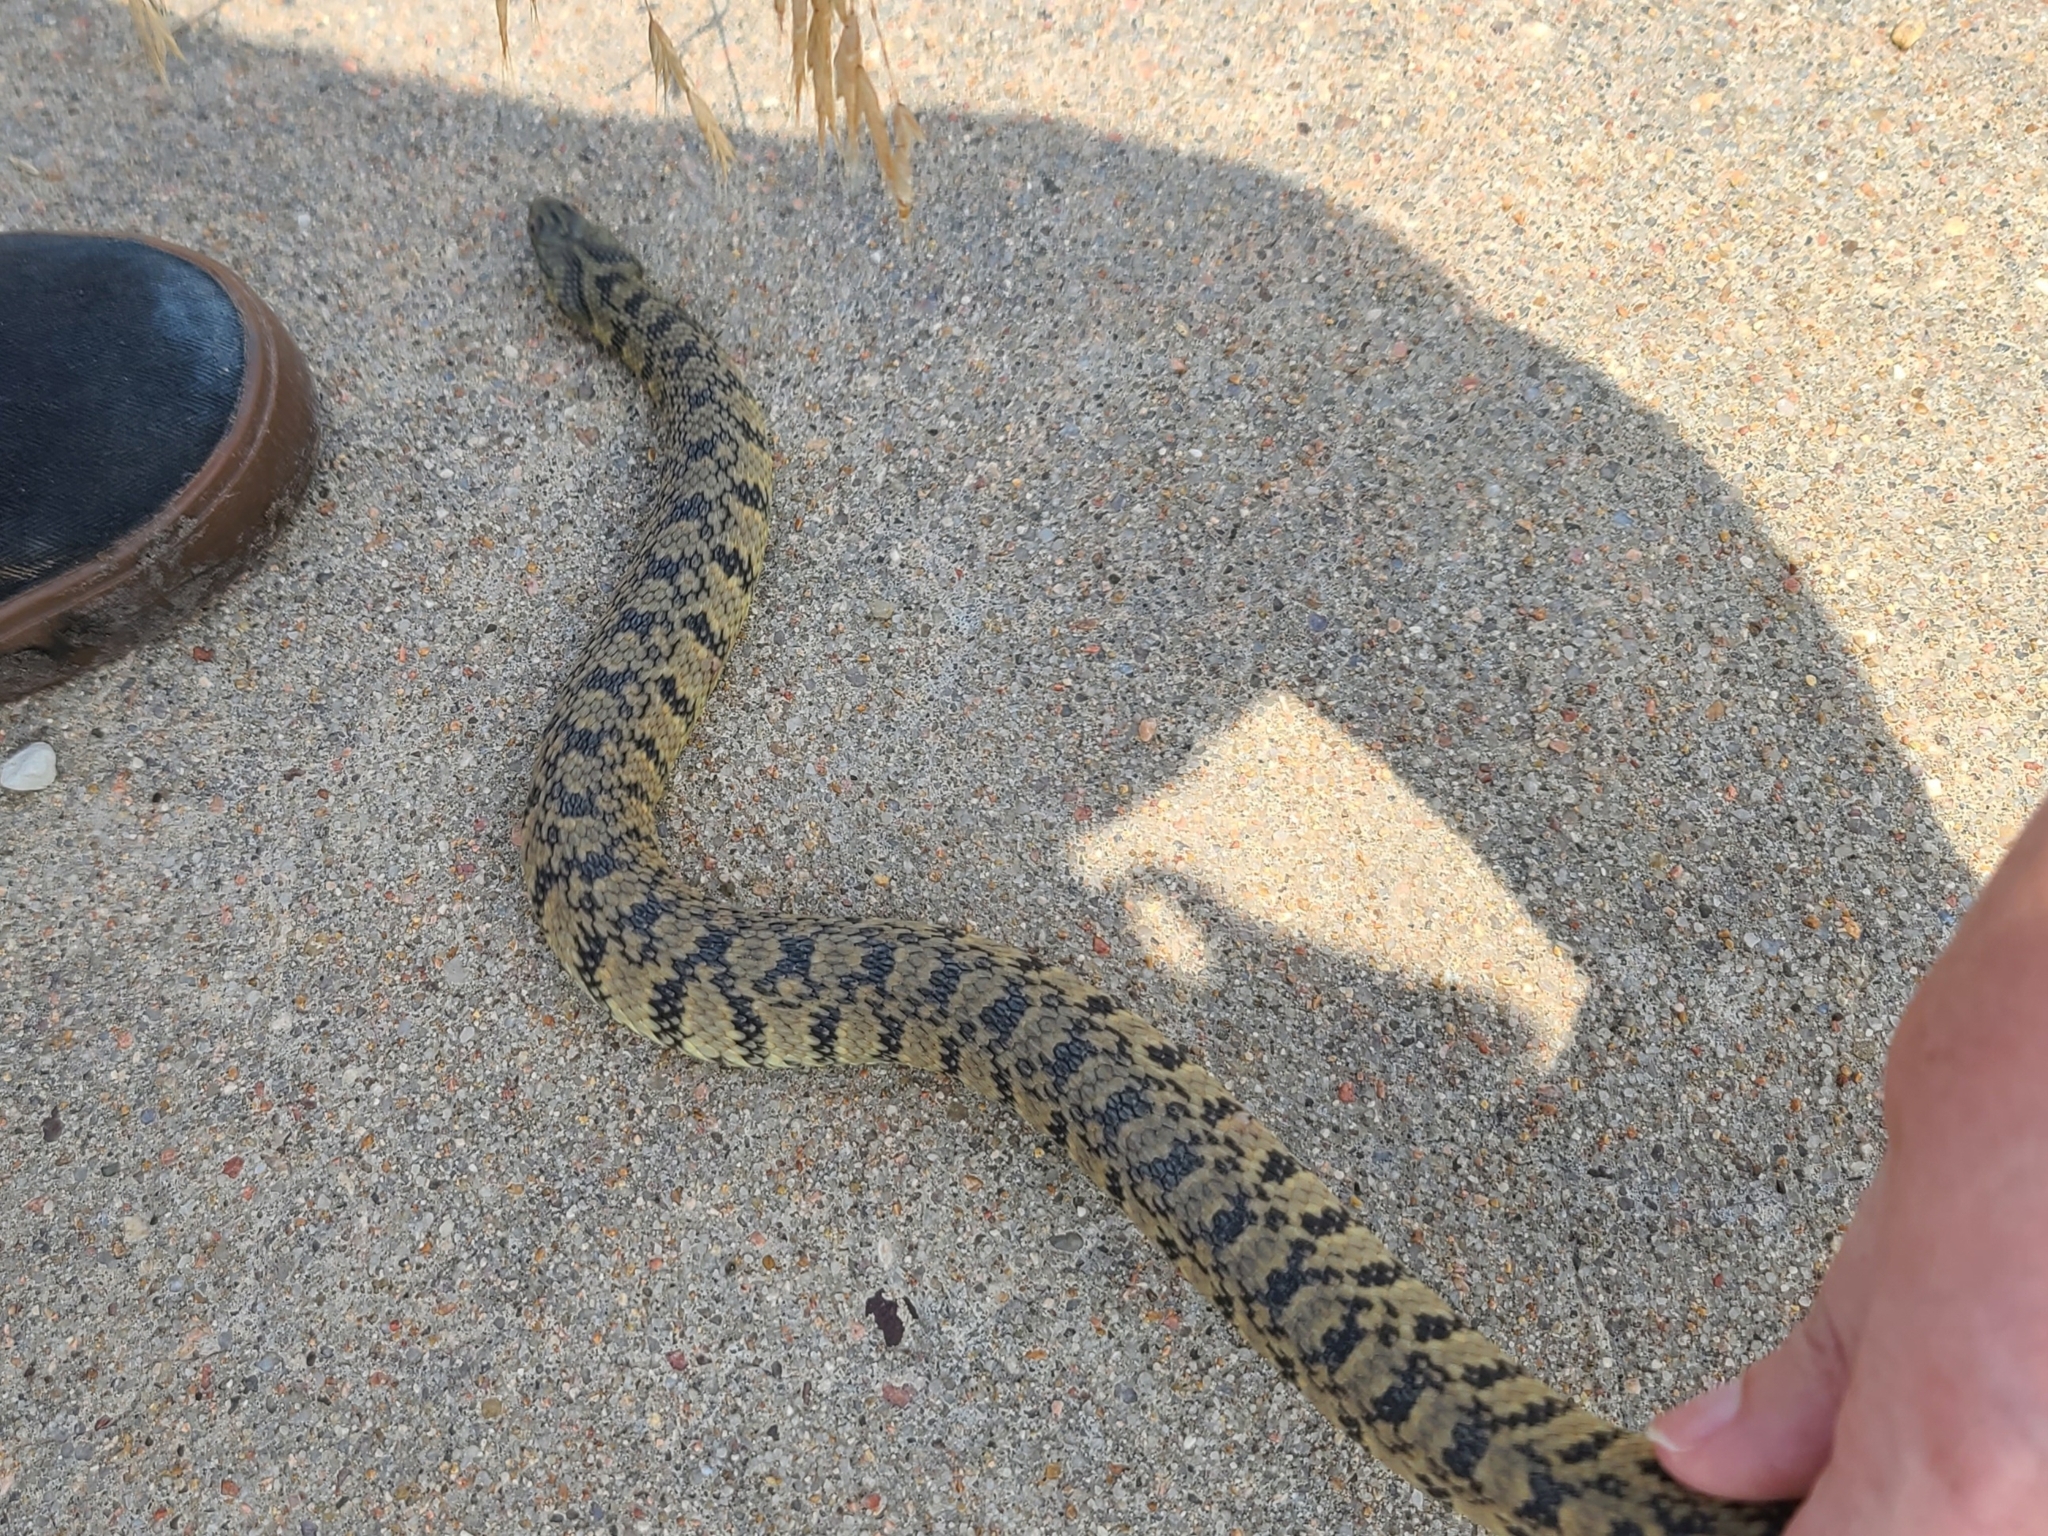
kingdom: Animalia
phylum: Chordata
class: Squamata
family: Colubridae
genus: Nerodia
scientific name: Nerodia rhombifer
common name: Diamondback water snake
